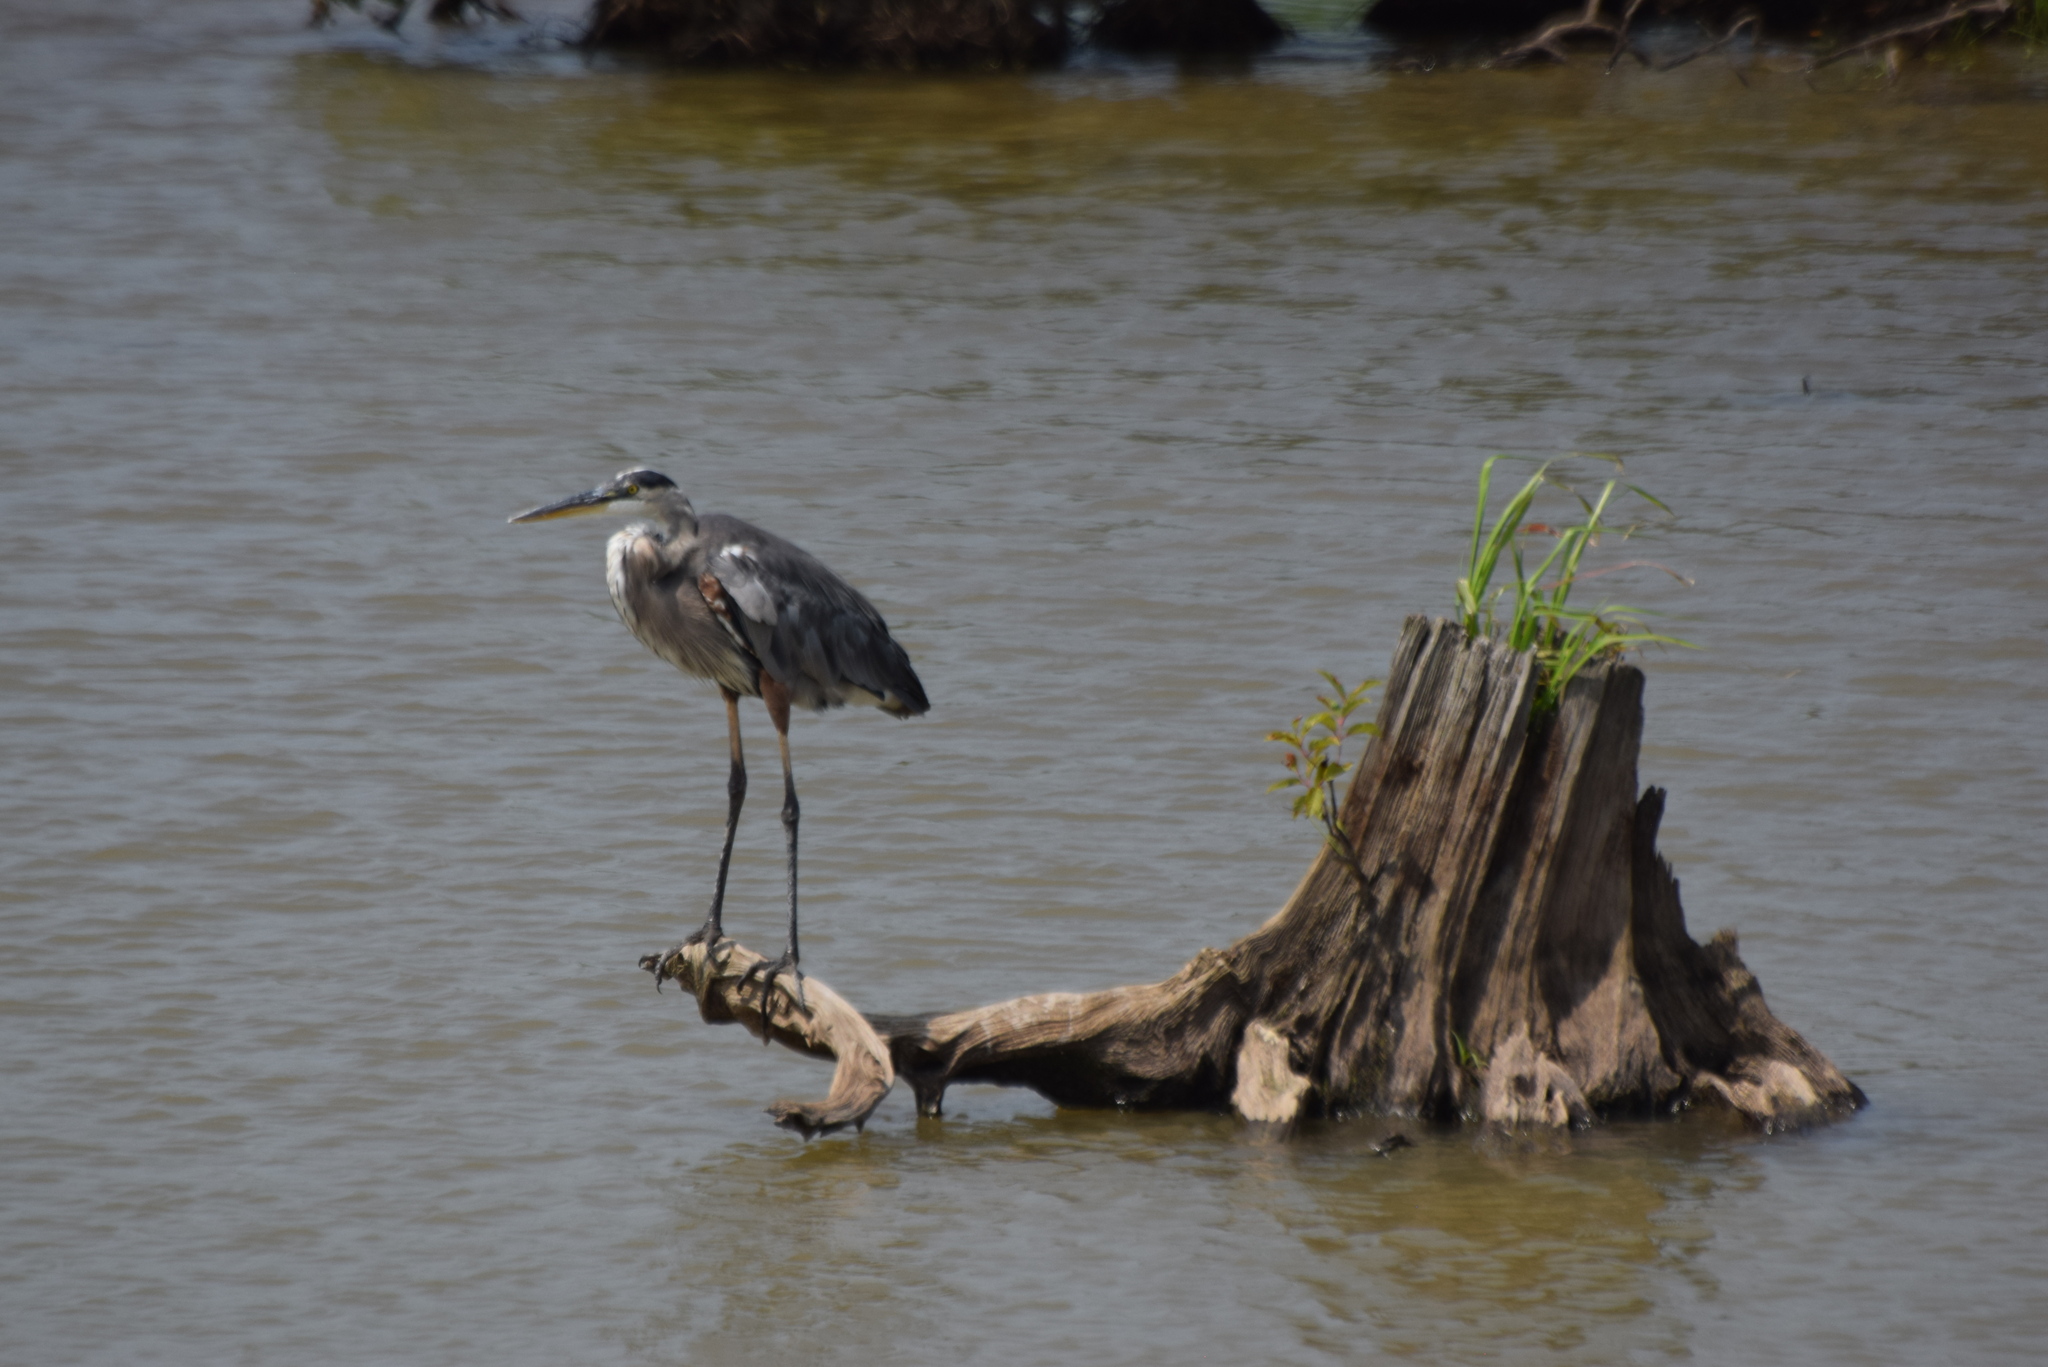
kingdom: Animalia
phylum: Chordata
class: Aves
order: Pelecaniformes
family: Ardeidae
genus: Ardea
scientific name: Ardea herodias
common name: Great blue heron
